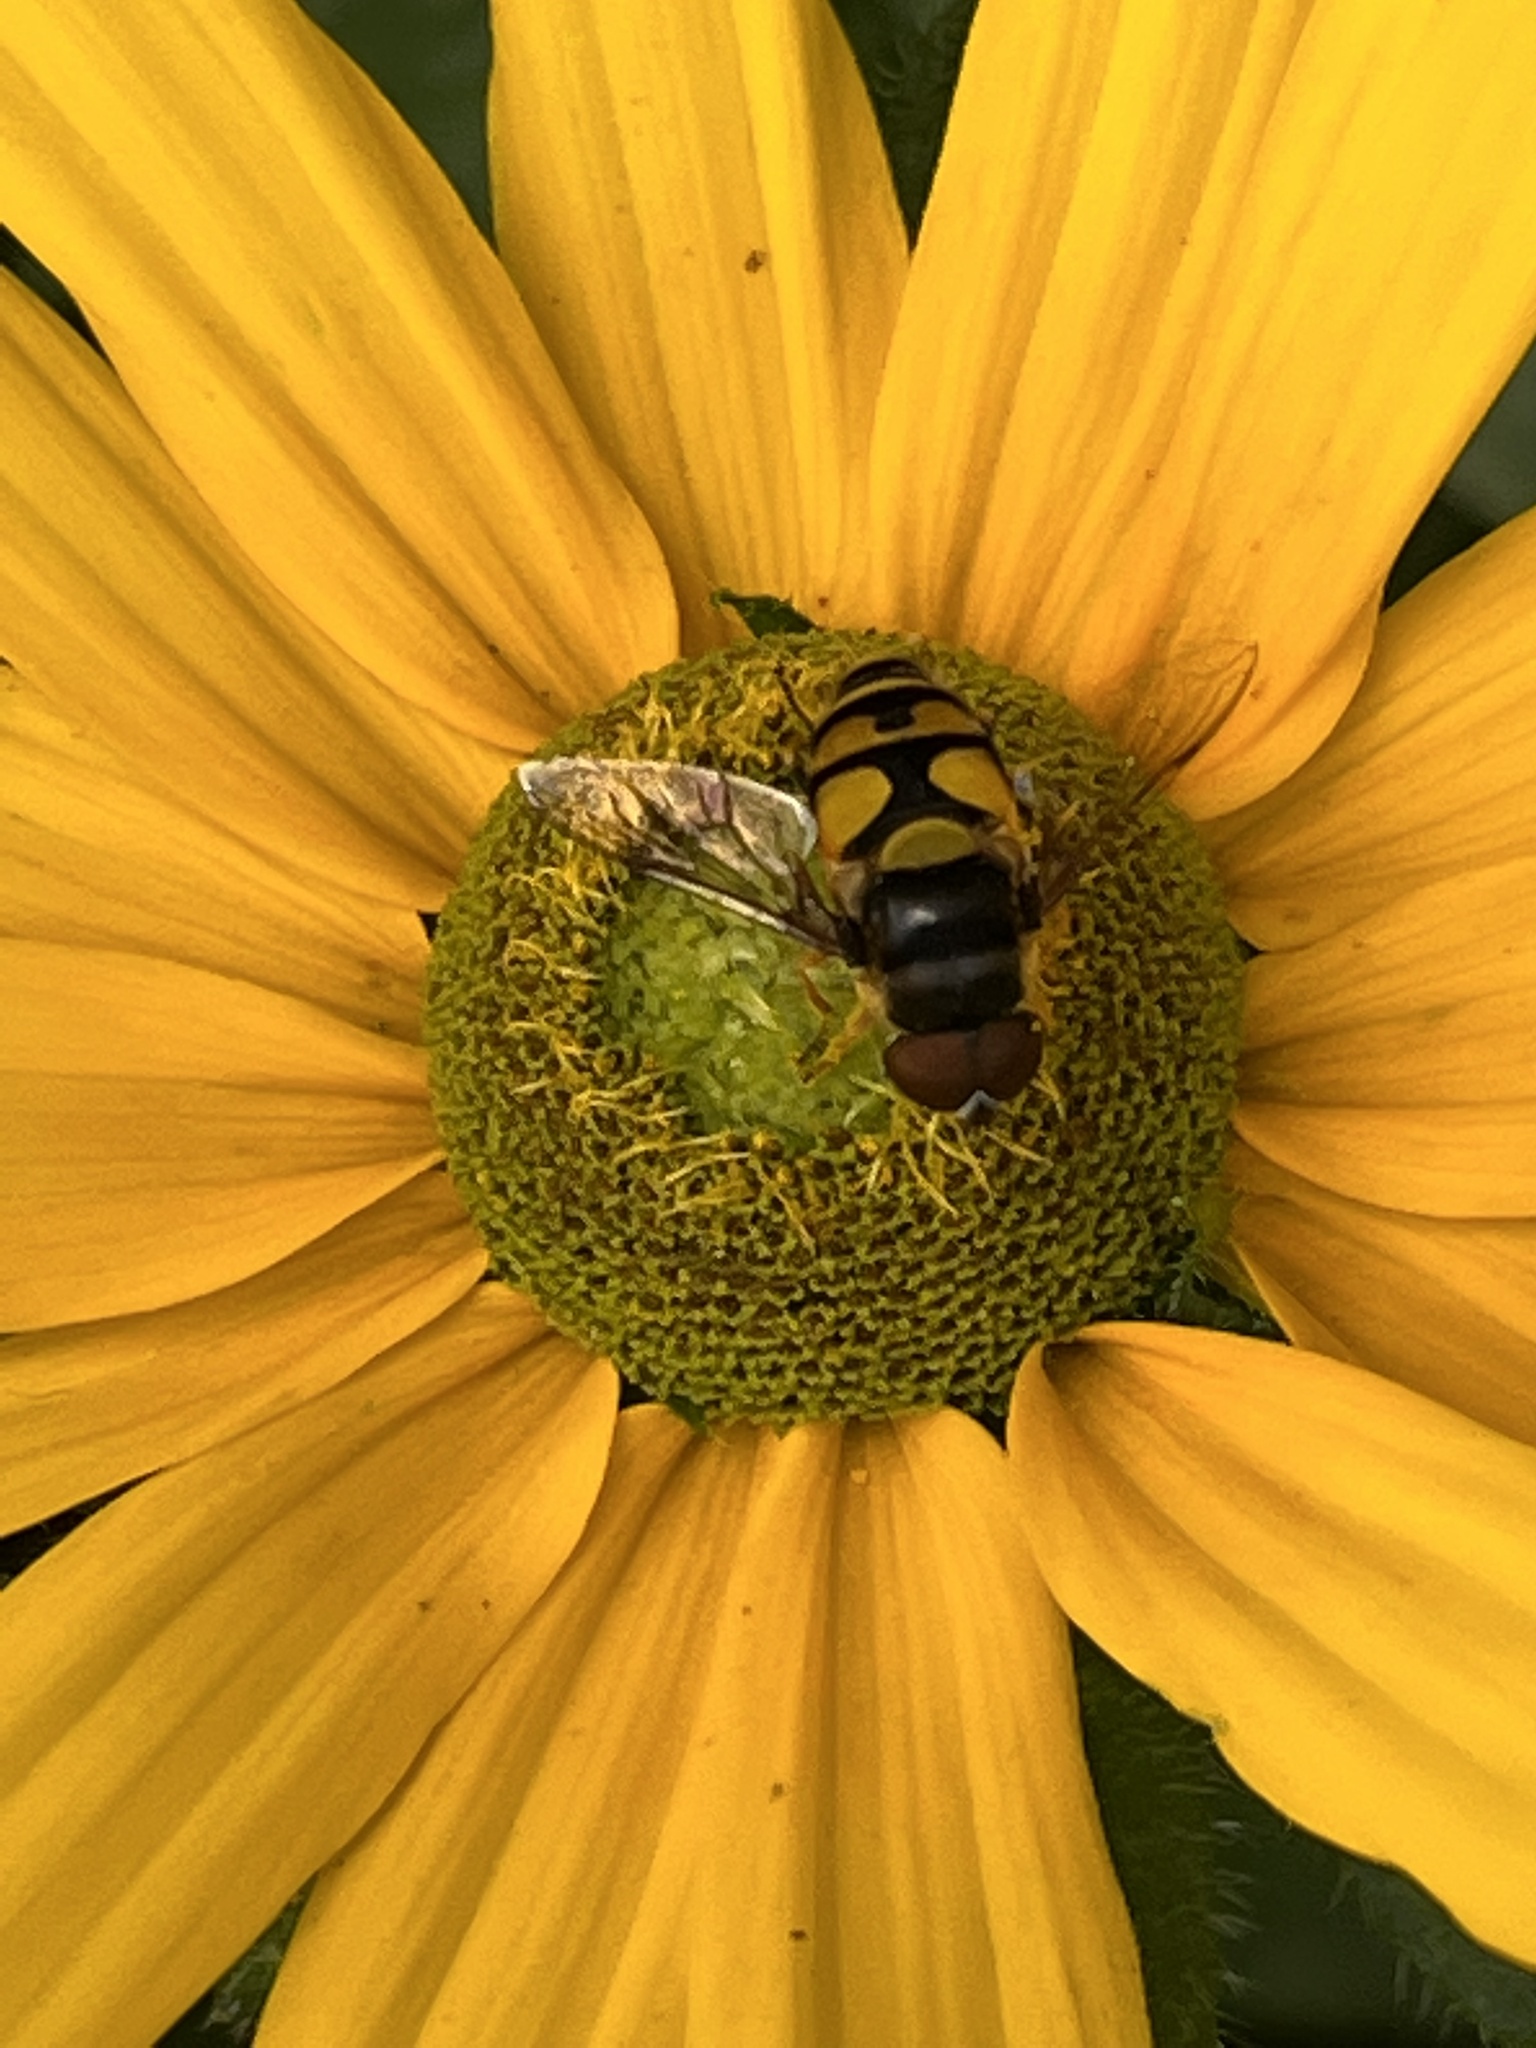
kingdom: Animalia
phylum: Arthropoda
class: Insecta
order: Diptera
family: Syrphidae
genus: Eristalis
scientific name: Eristalis transversa
